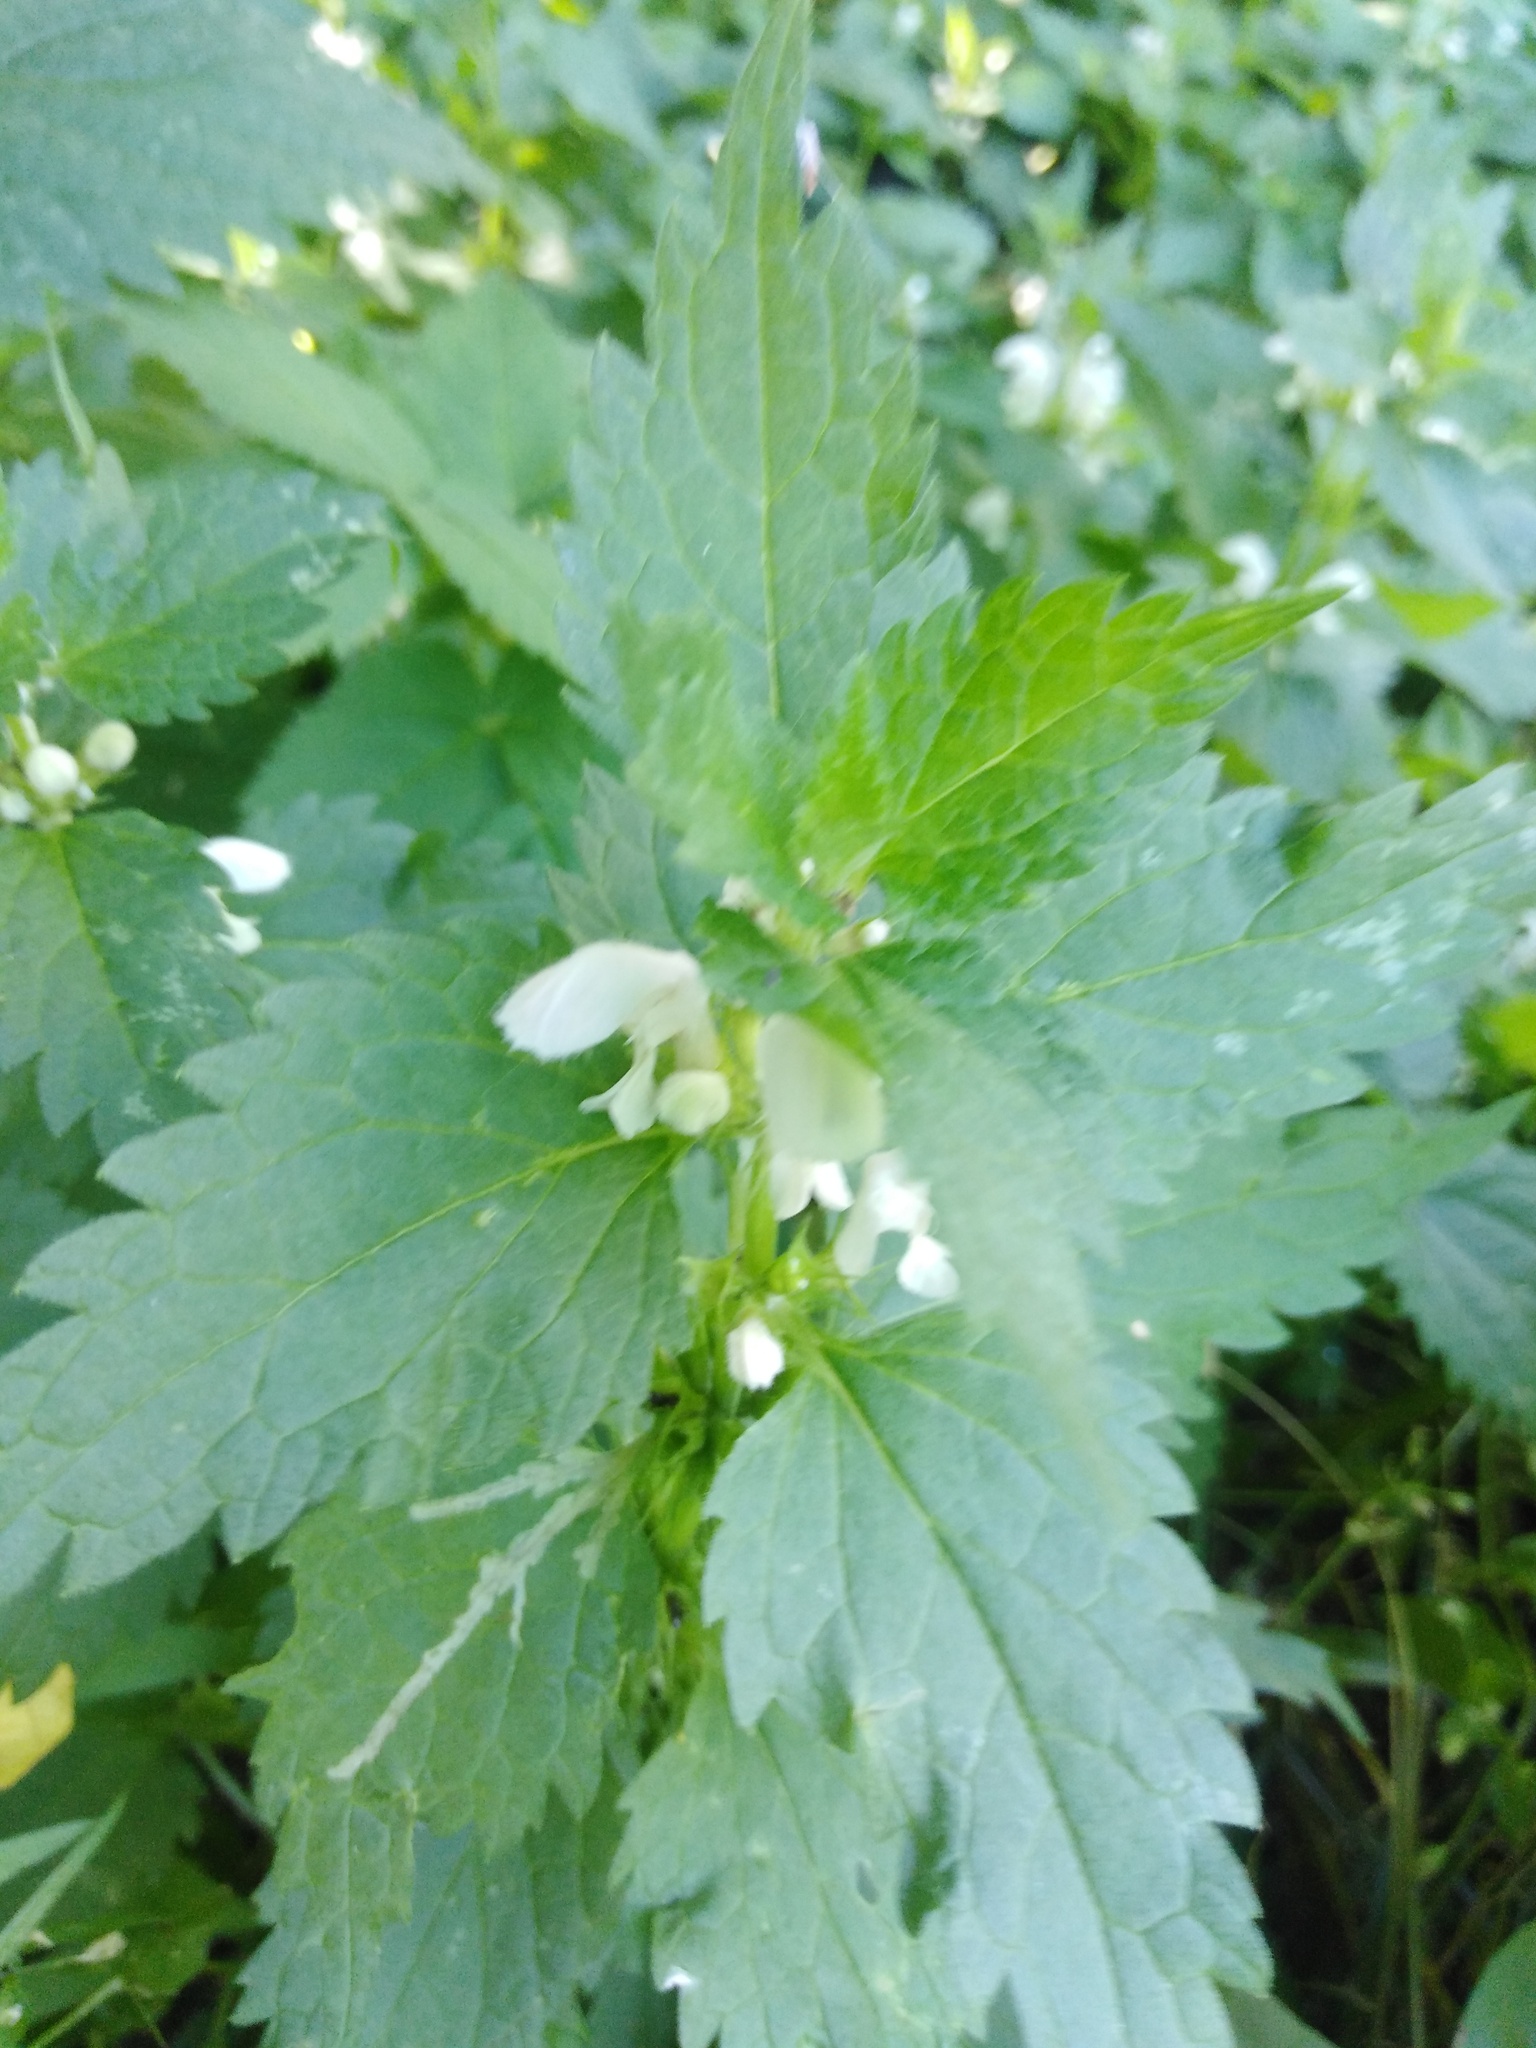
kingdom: Plantae
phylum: Tracheophyta
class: Magnoliopsida
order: Lamiales
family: Lamiaceae
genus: Lamium
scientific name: Lamium album
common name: White dead-nettle
